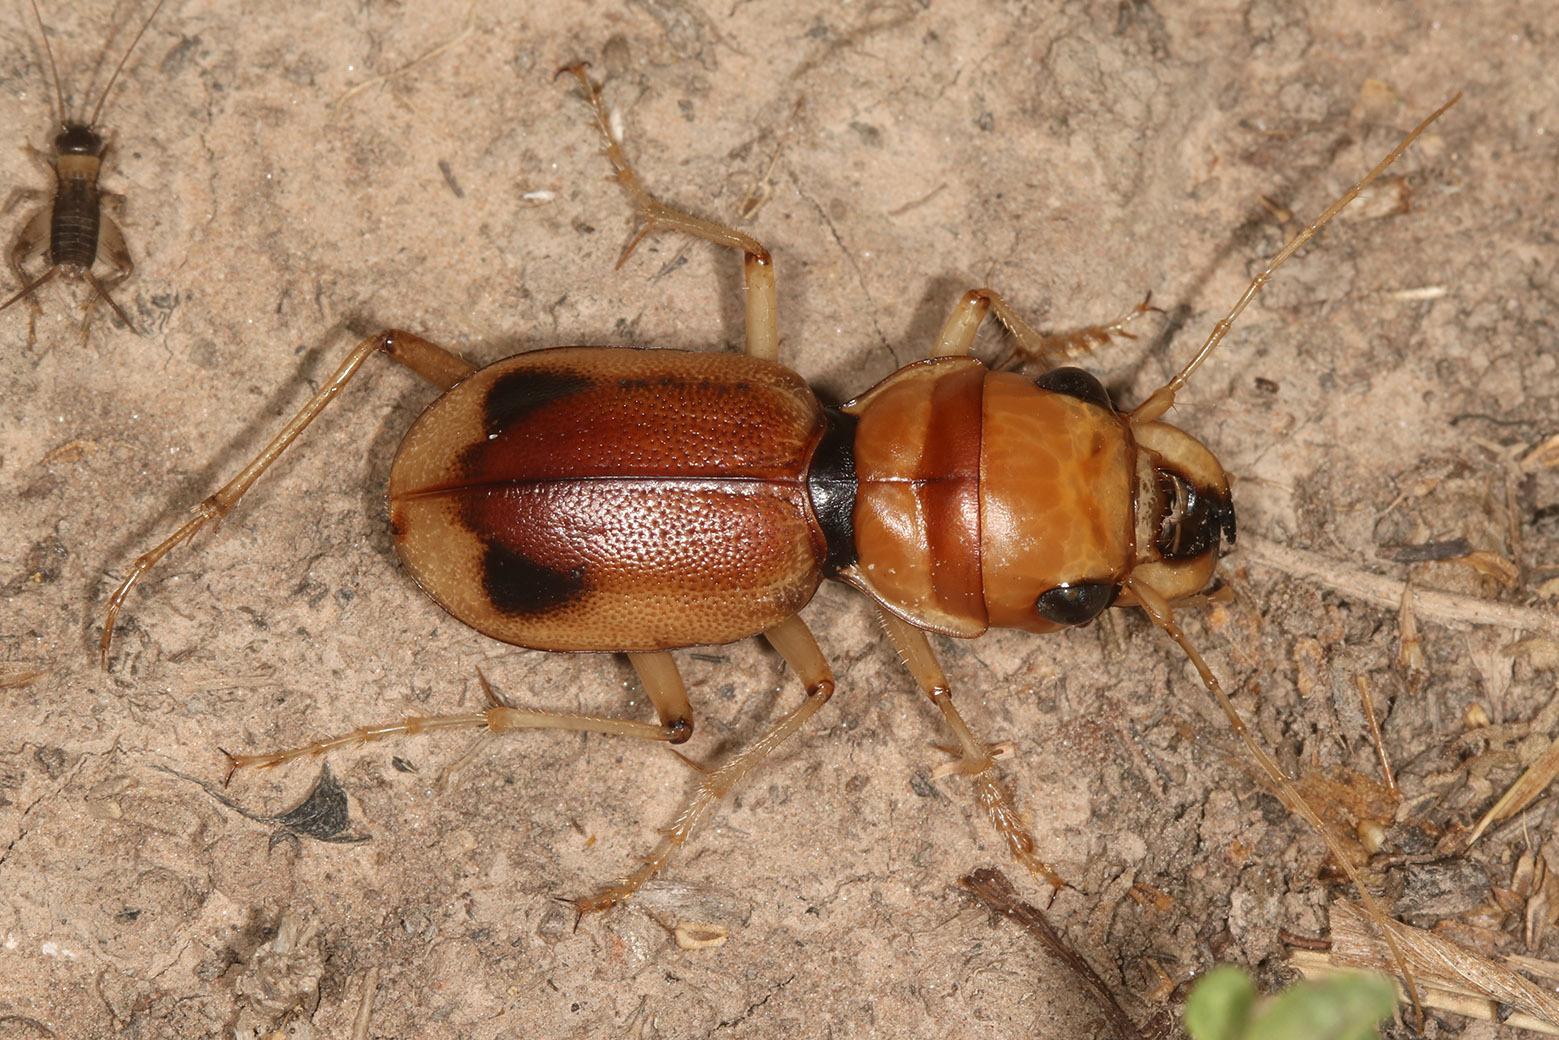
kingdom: Animalia
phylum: Arthropoda
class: Insecta
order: Coleoptera
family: Carabidae
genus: Phaeoxantha
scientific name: Phaeoxantha klugii
